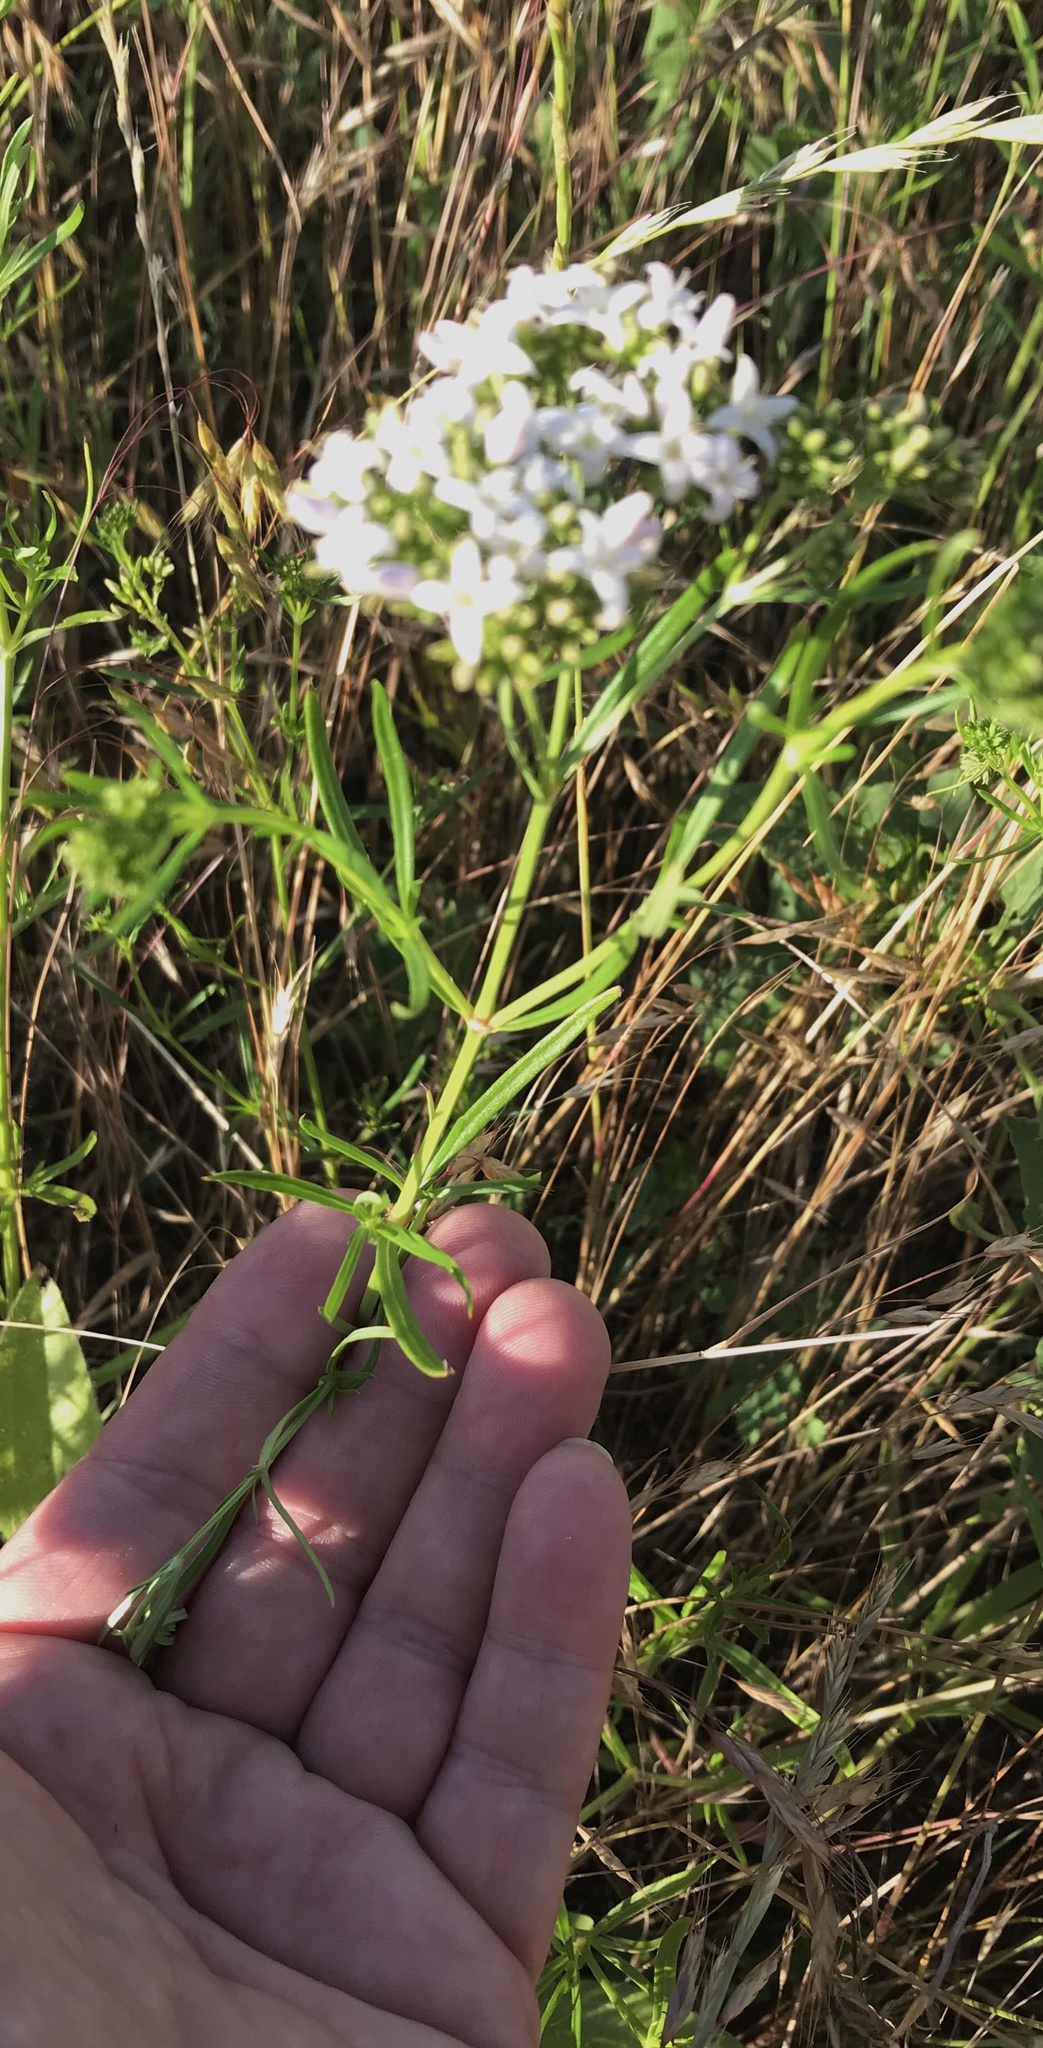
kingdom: Plantae
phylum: Tracheophyta
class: Magnoliopsida
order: Gentianales
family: Rubiaceae
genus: Stenaria
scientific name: Stenaria nigricans
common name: Diamondflowers
